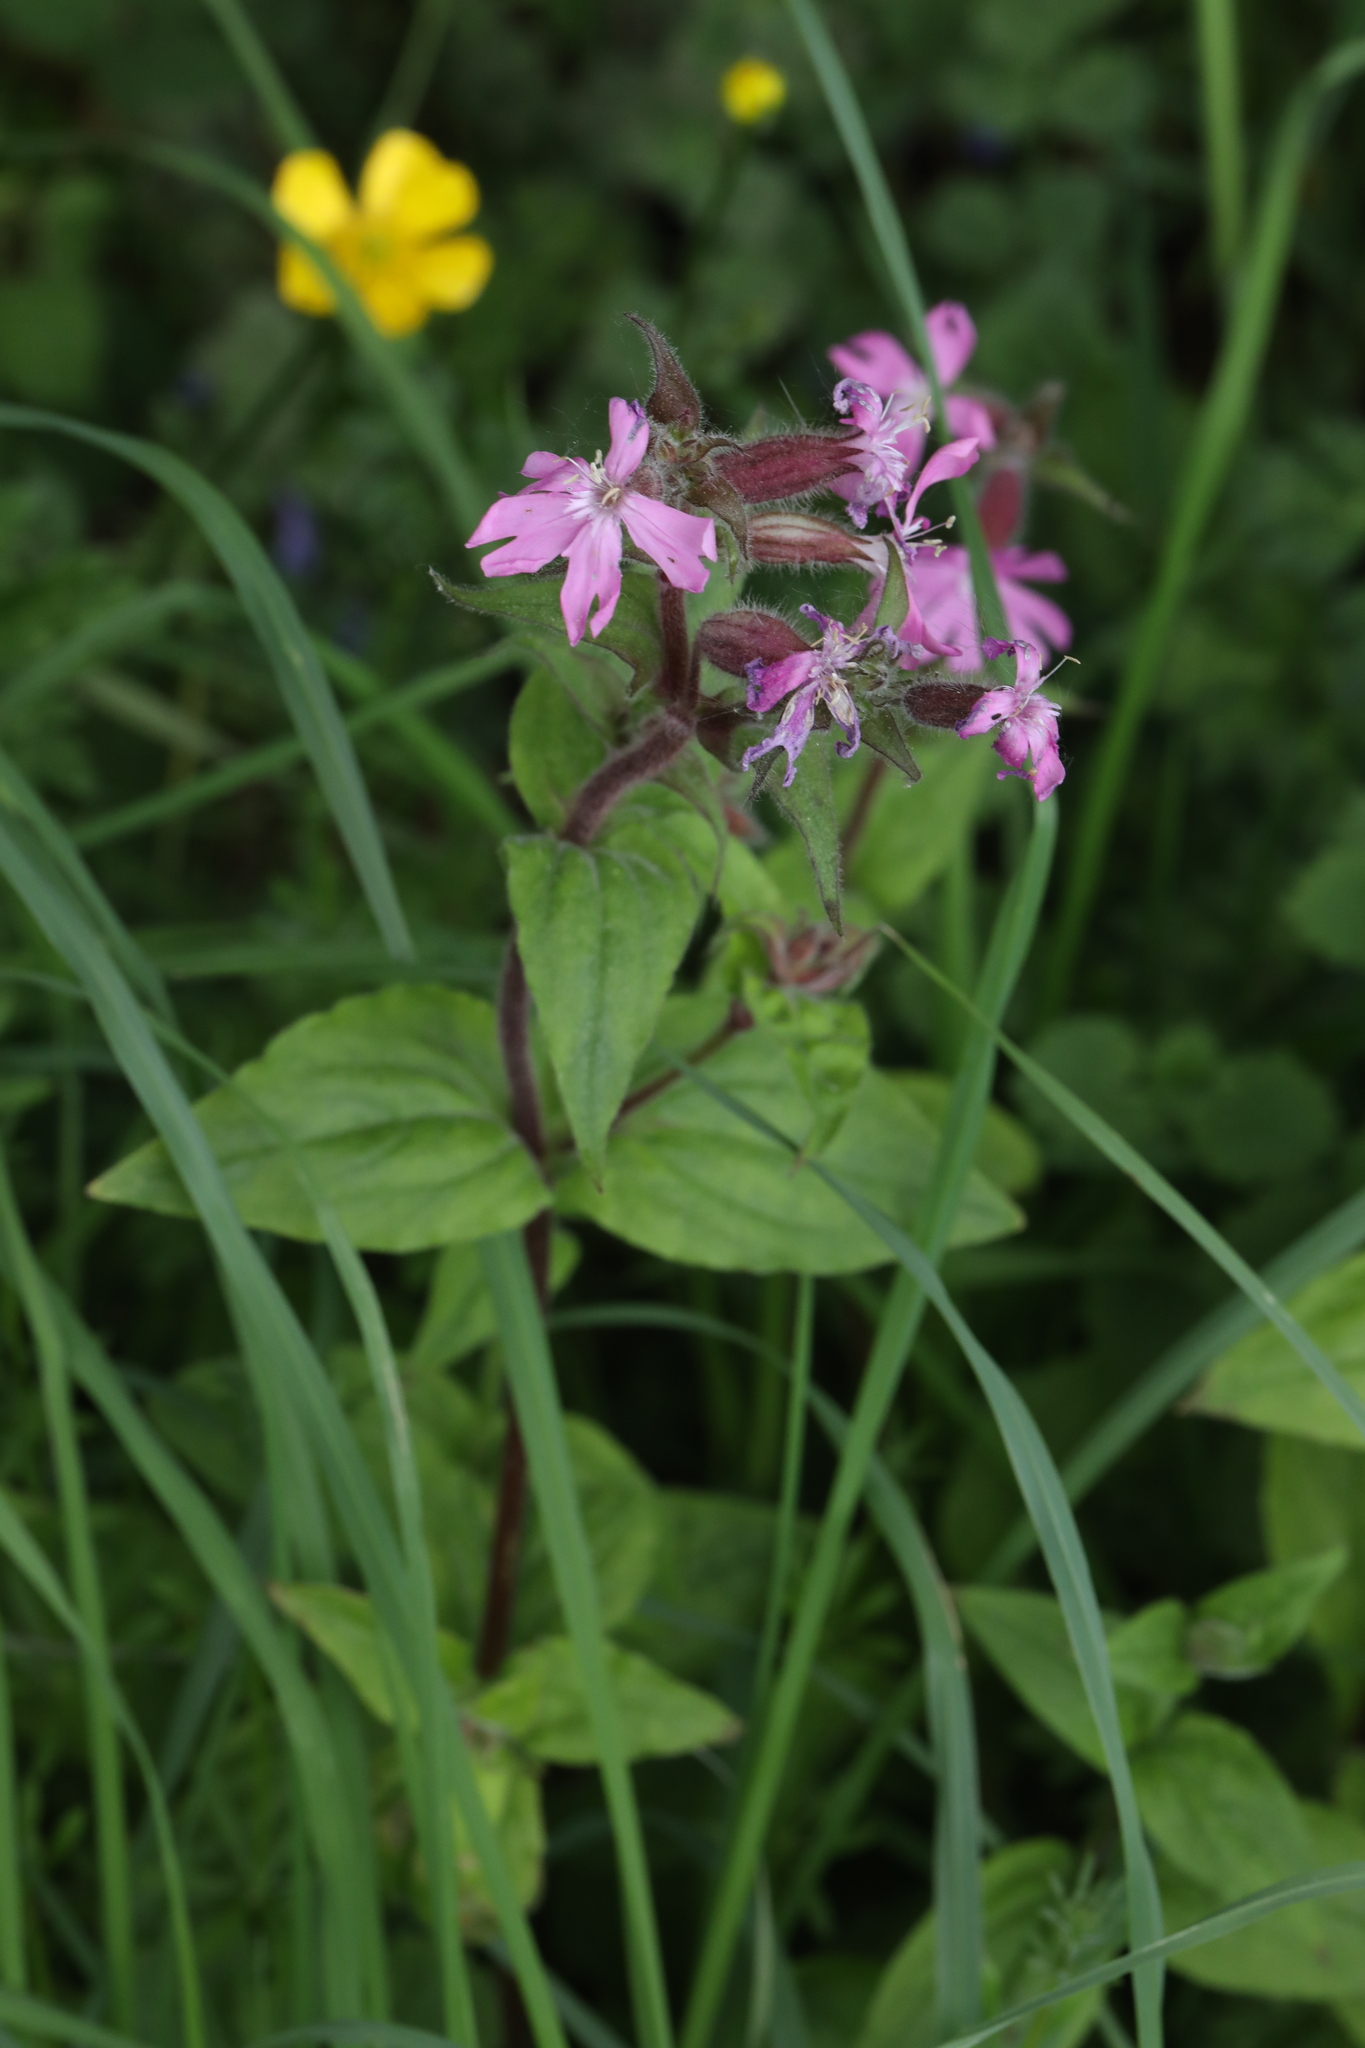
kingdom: Plantae
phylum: Tracheophyta
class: Magnoliopsida
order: Caryophyllales
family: Caryophyllaceae
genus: Silene
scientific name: Silene dioica
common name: Red campion
